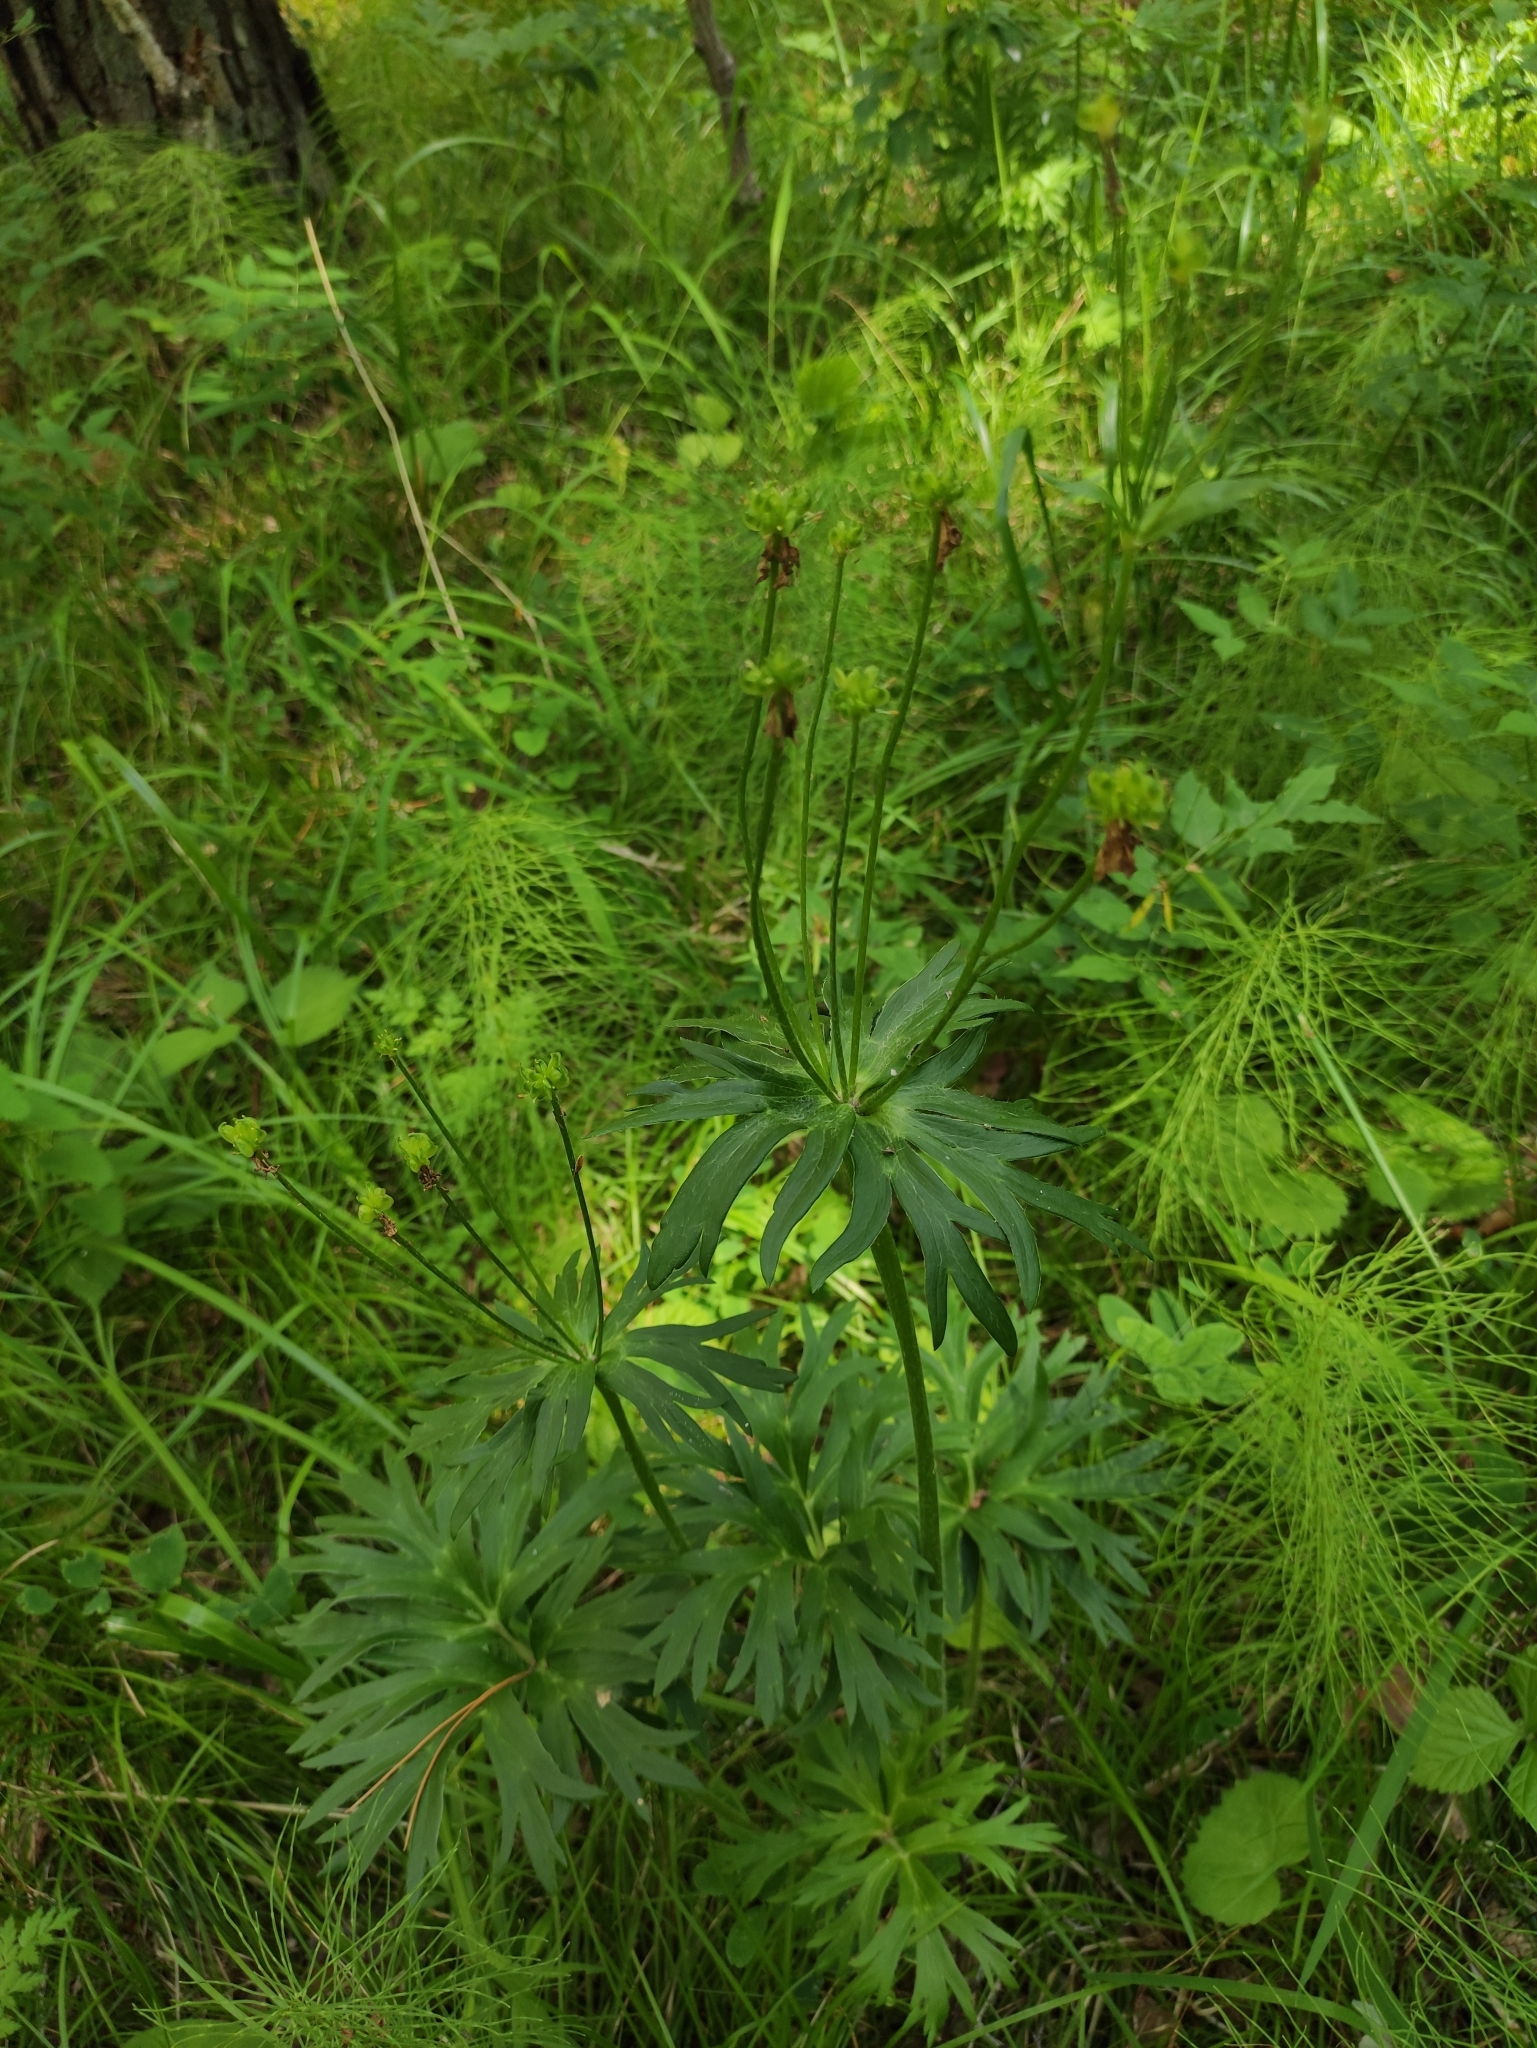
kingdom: Plantae
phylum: Tracheophyta
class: Magnoliopsida
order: Ranunculales
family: Ranunculaceae
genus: Anemonastrum
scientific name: Anemonastrum narcissiflorum
